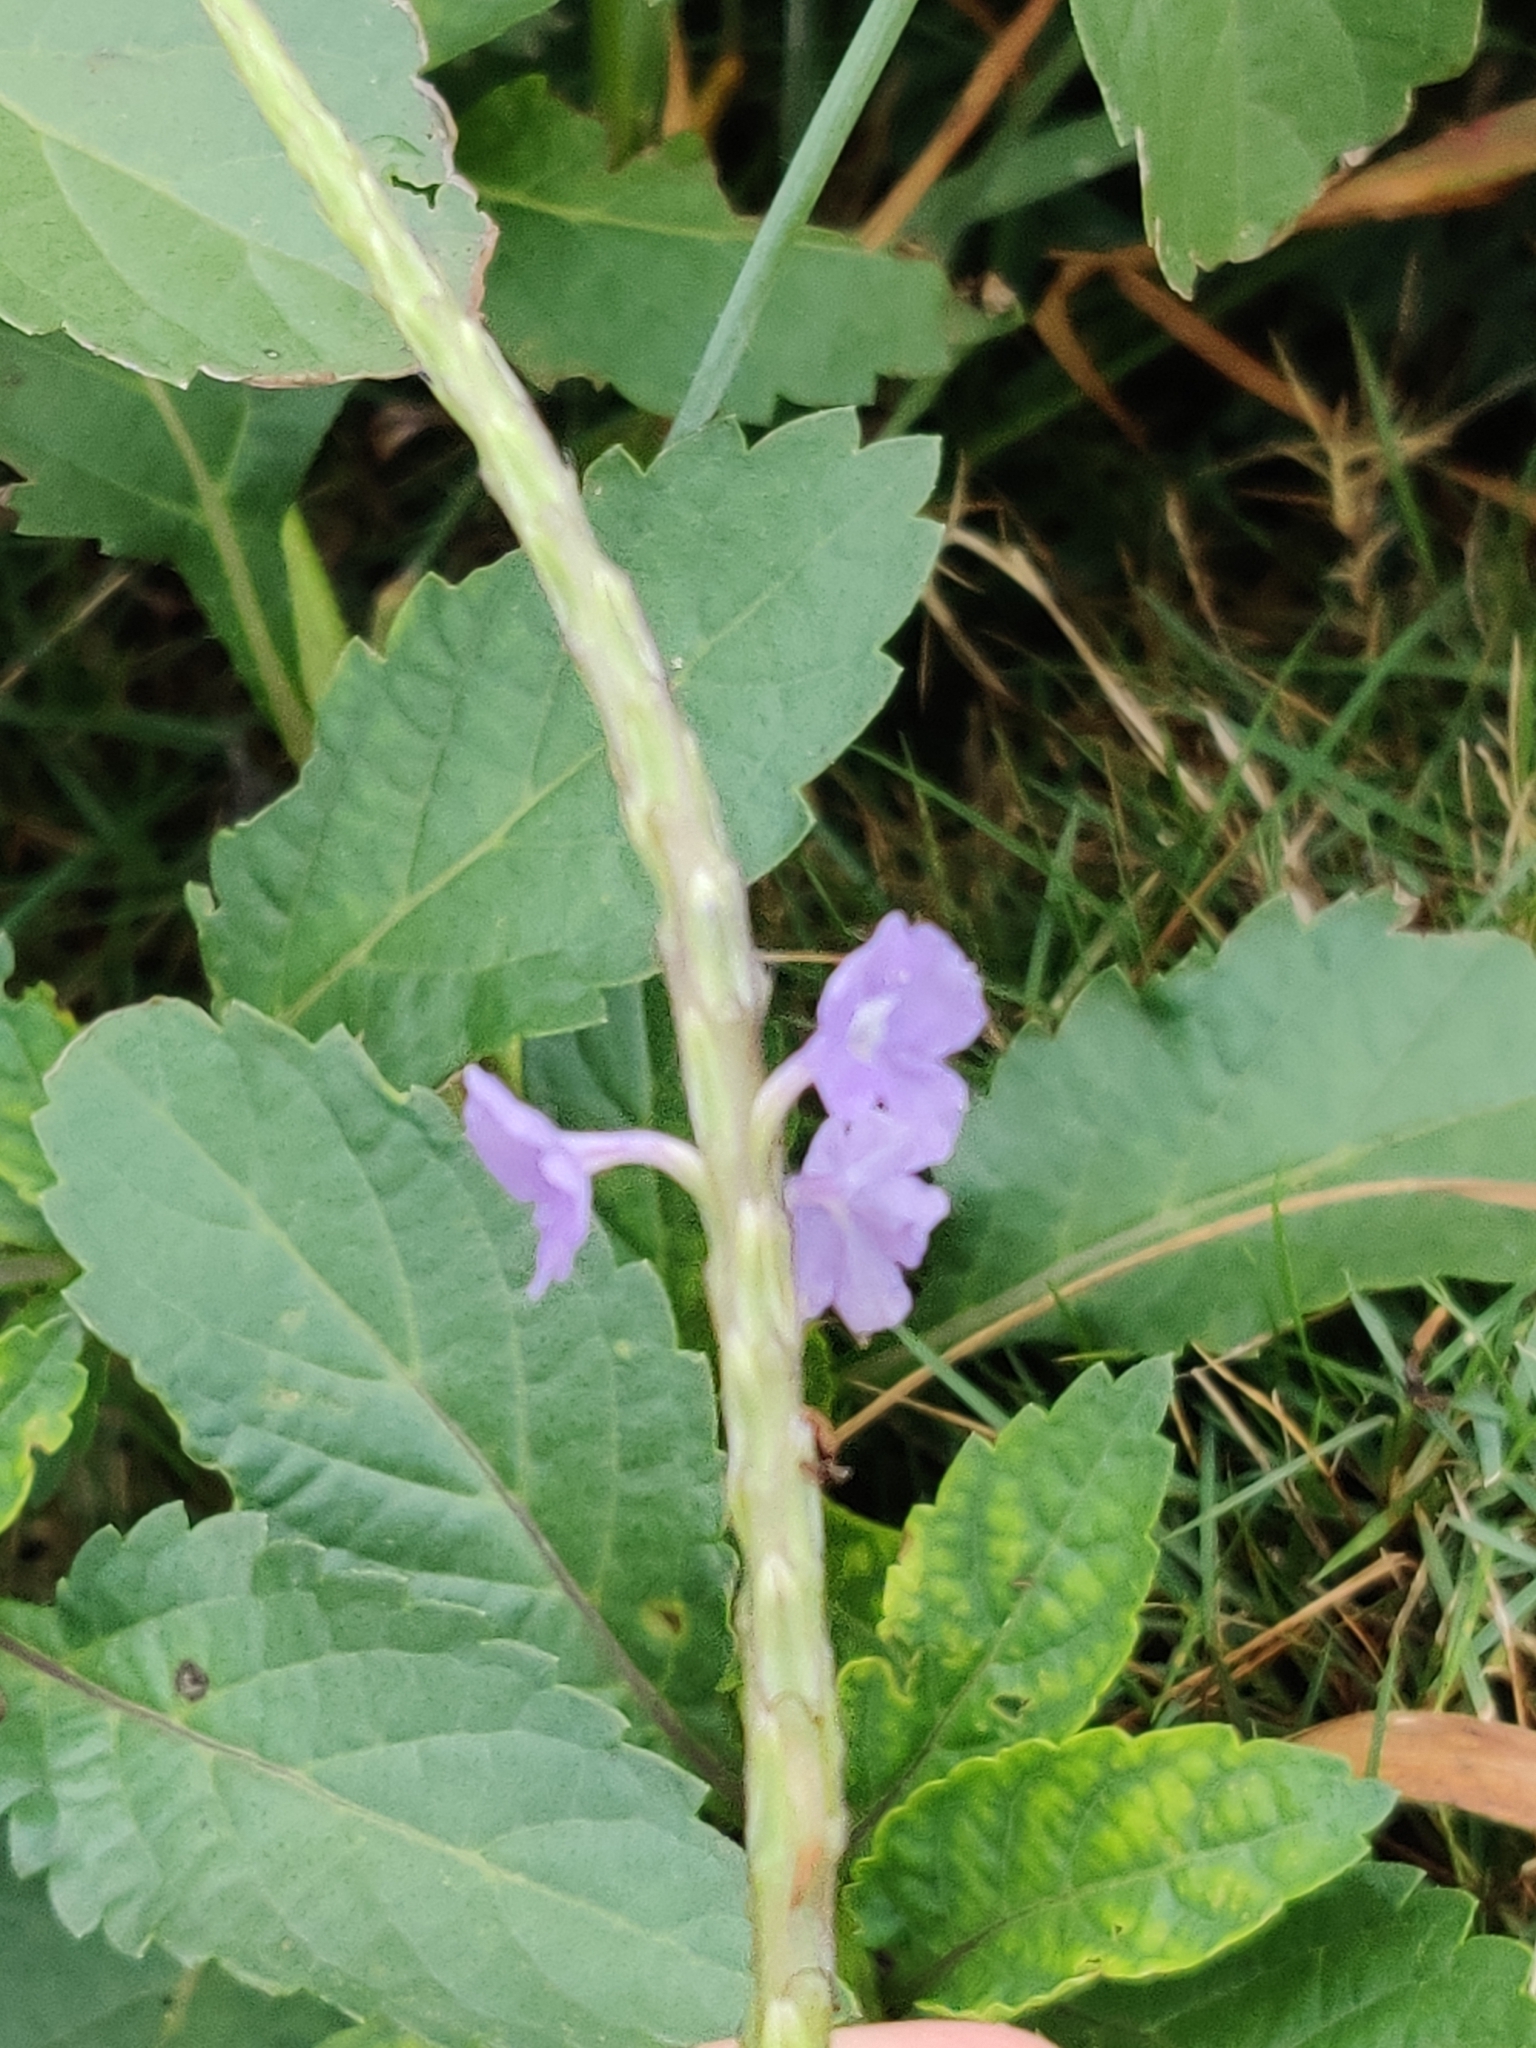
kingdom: Plantae
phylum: Tracheophyta
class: Magnoliopsida
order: Lamiales
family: Verbenaceae
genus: Stachytarpheta
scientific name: Stachytarpheta jamaicensis
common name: Light-blue snakeweed
